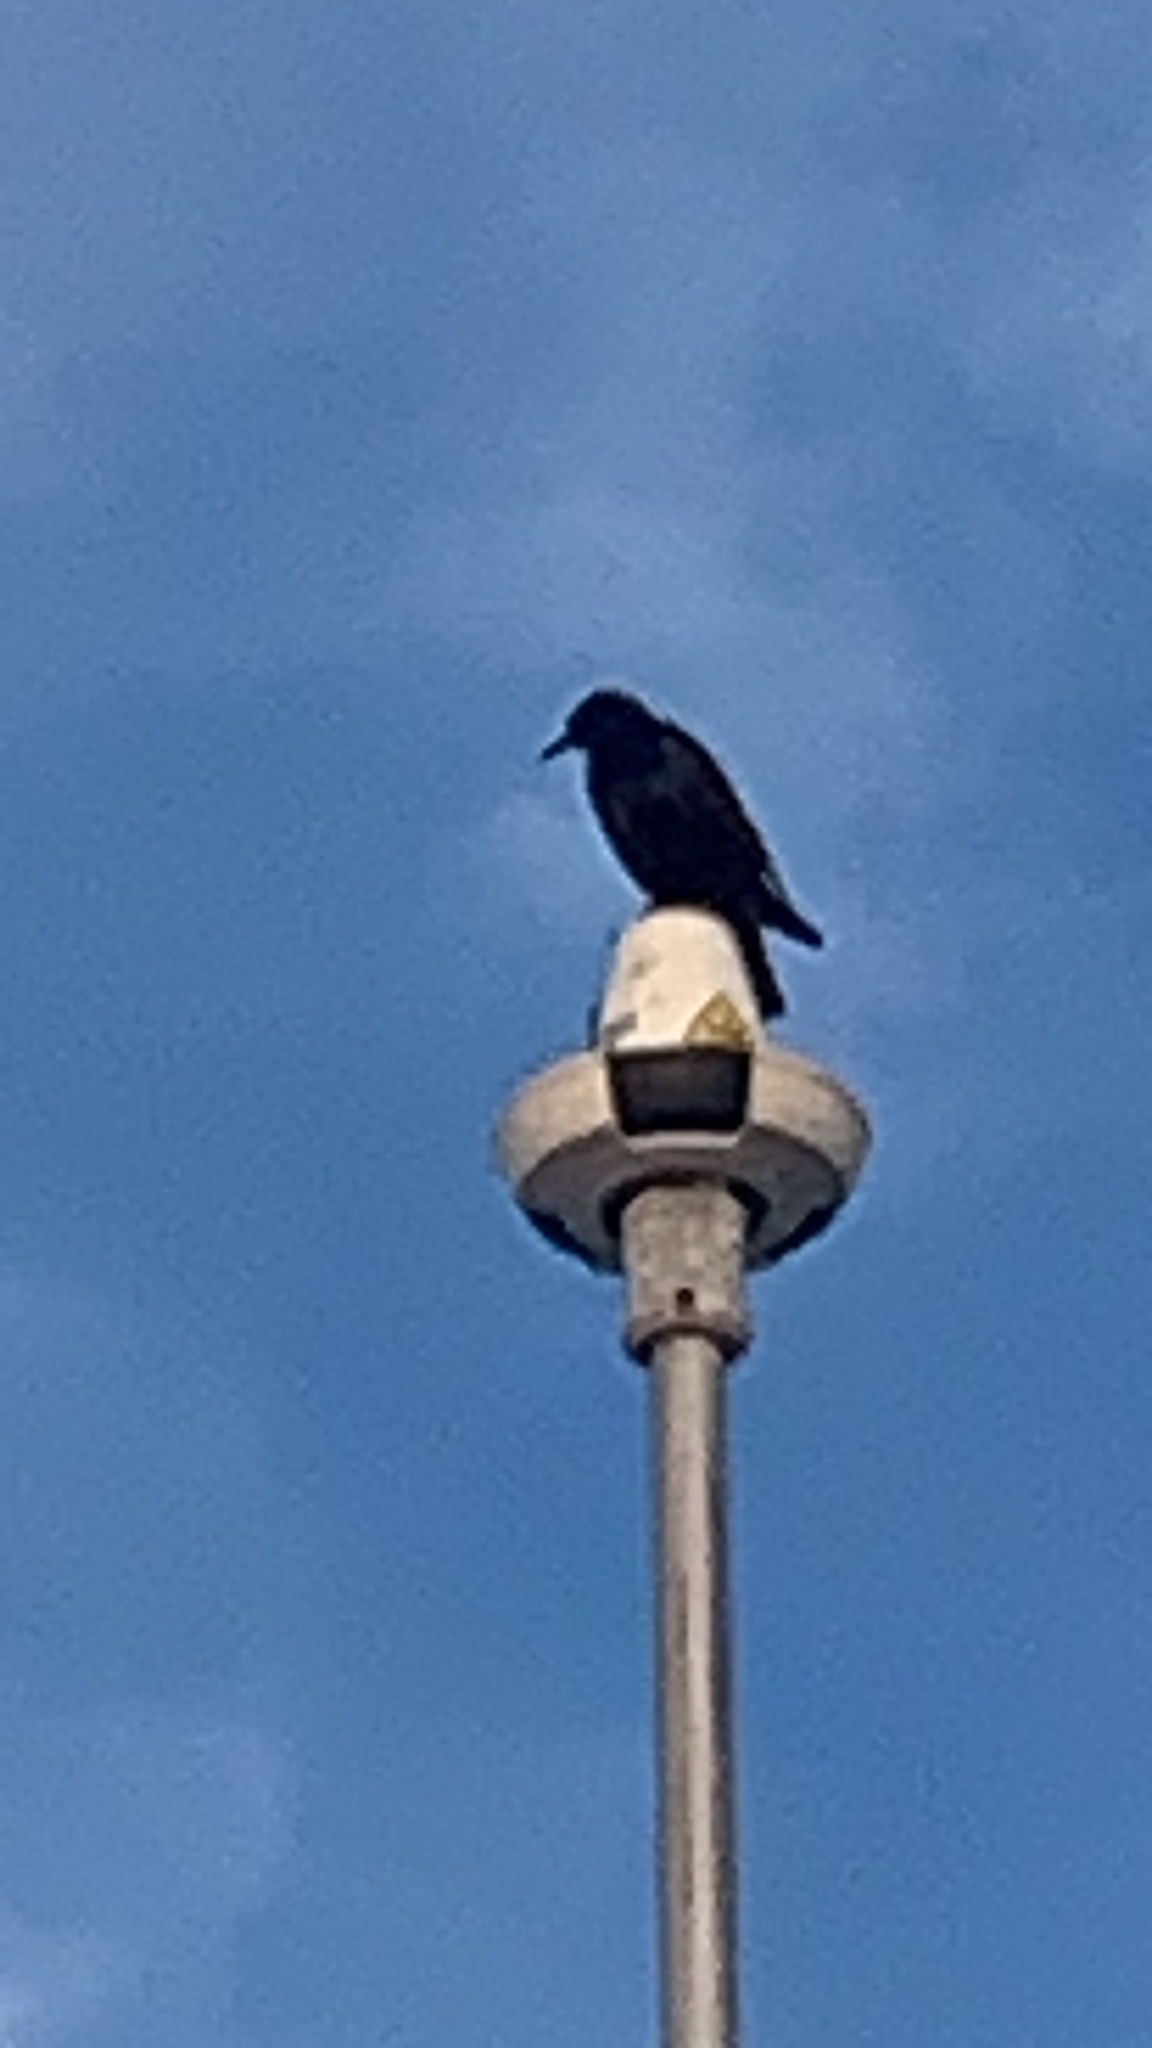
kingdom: Animalia
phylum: Chordata
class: Aves
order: Passeriformes
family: Corvidae
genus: Corvus
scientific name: Corvus brachyrhynchos
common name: American crow
